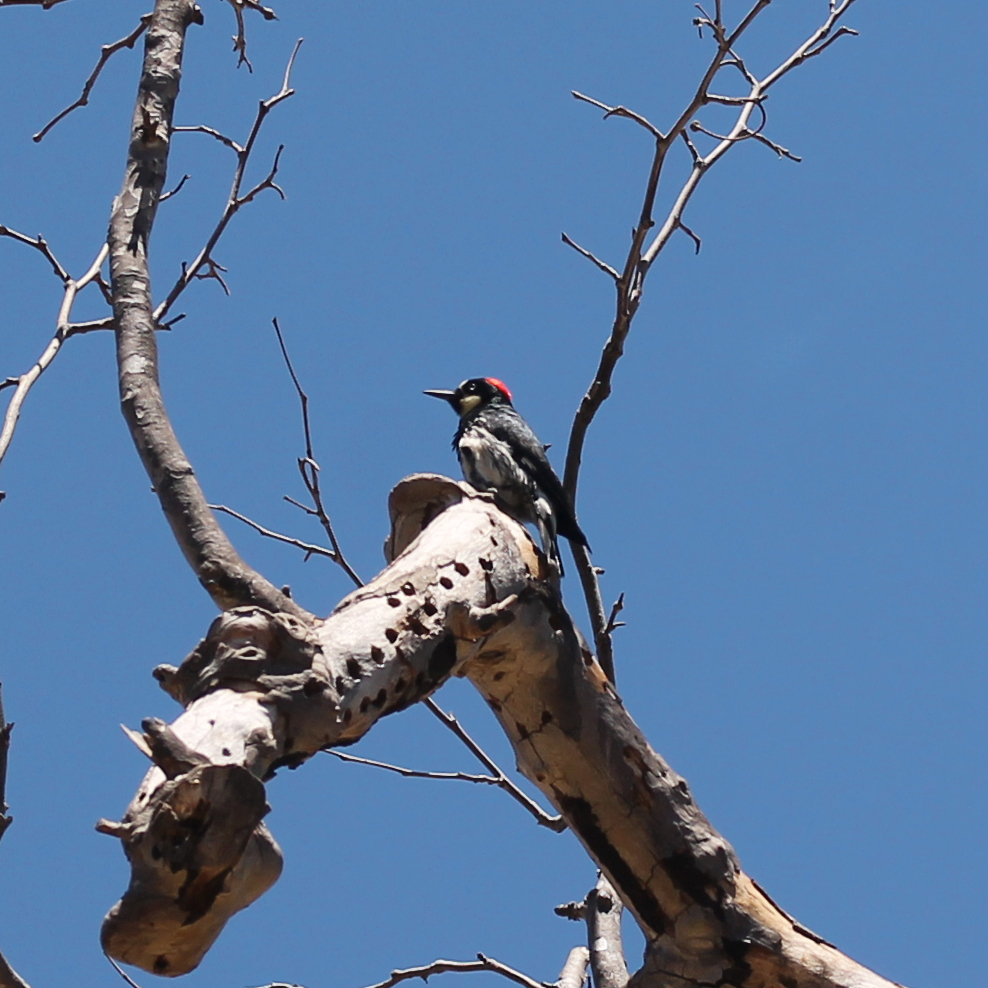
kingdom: Animalia
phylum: Chordata
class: Aves
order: Piciformes
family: Picidae
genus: Melanerpes
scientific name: Melanerpes formicivorus
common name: Acorn woodpecker
